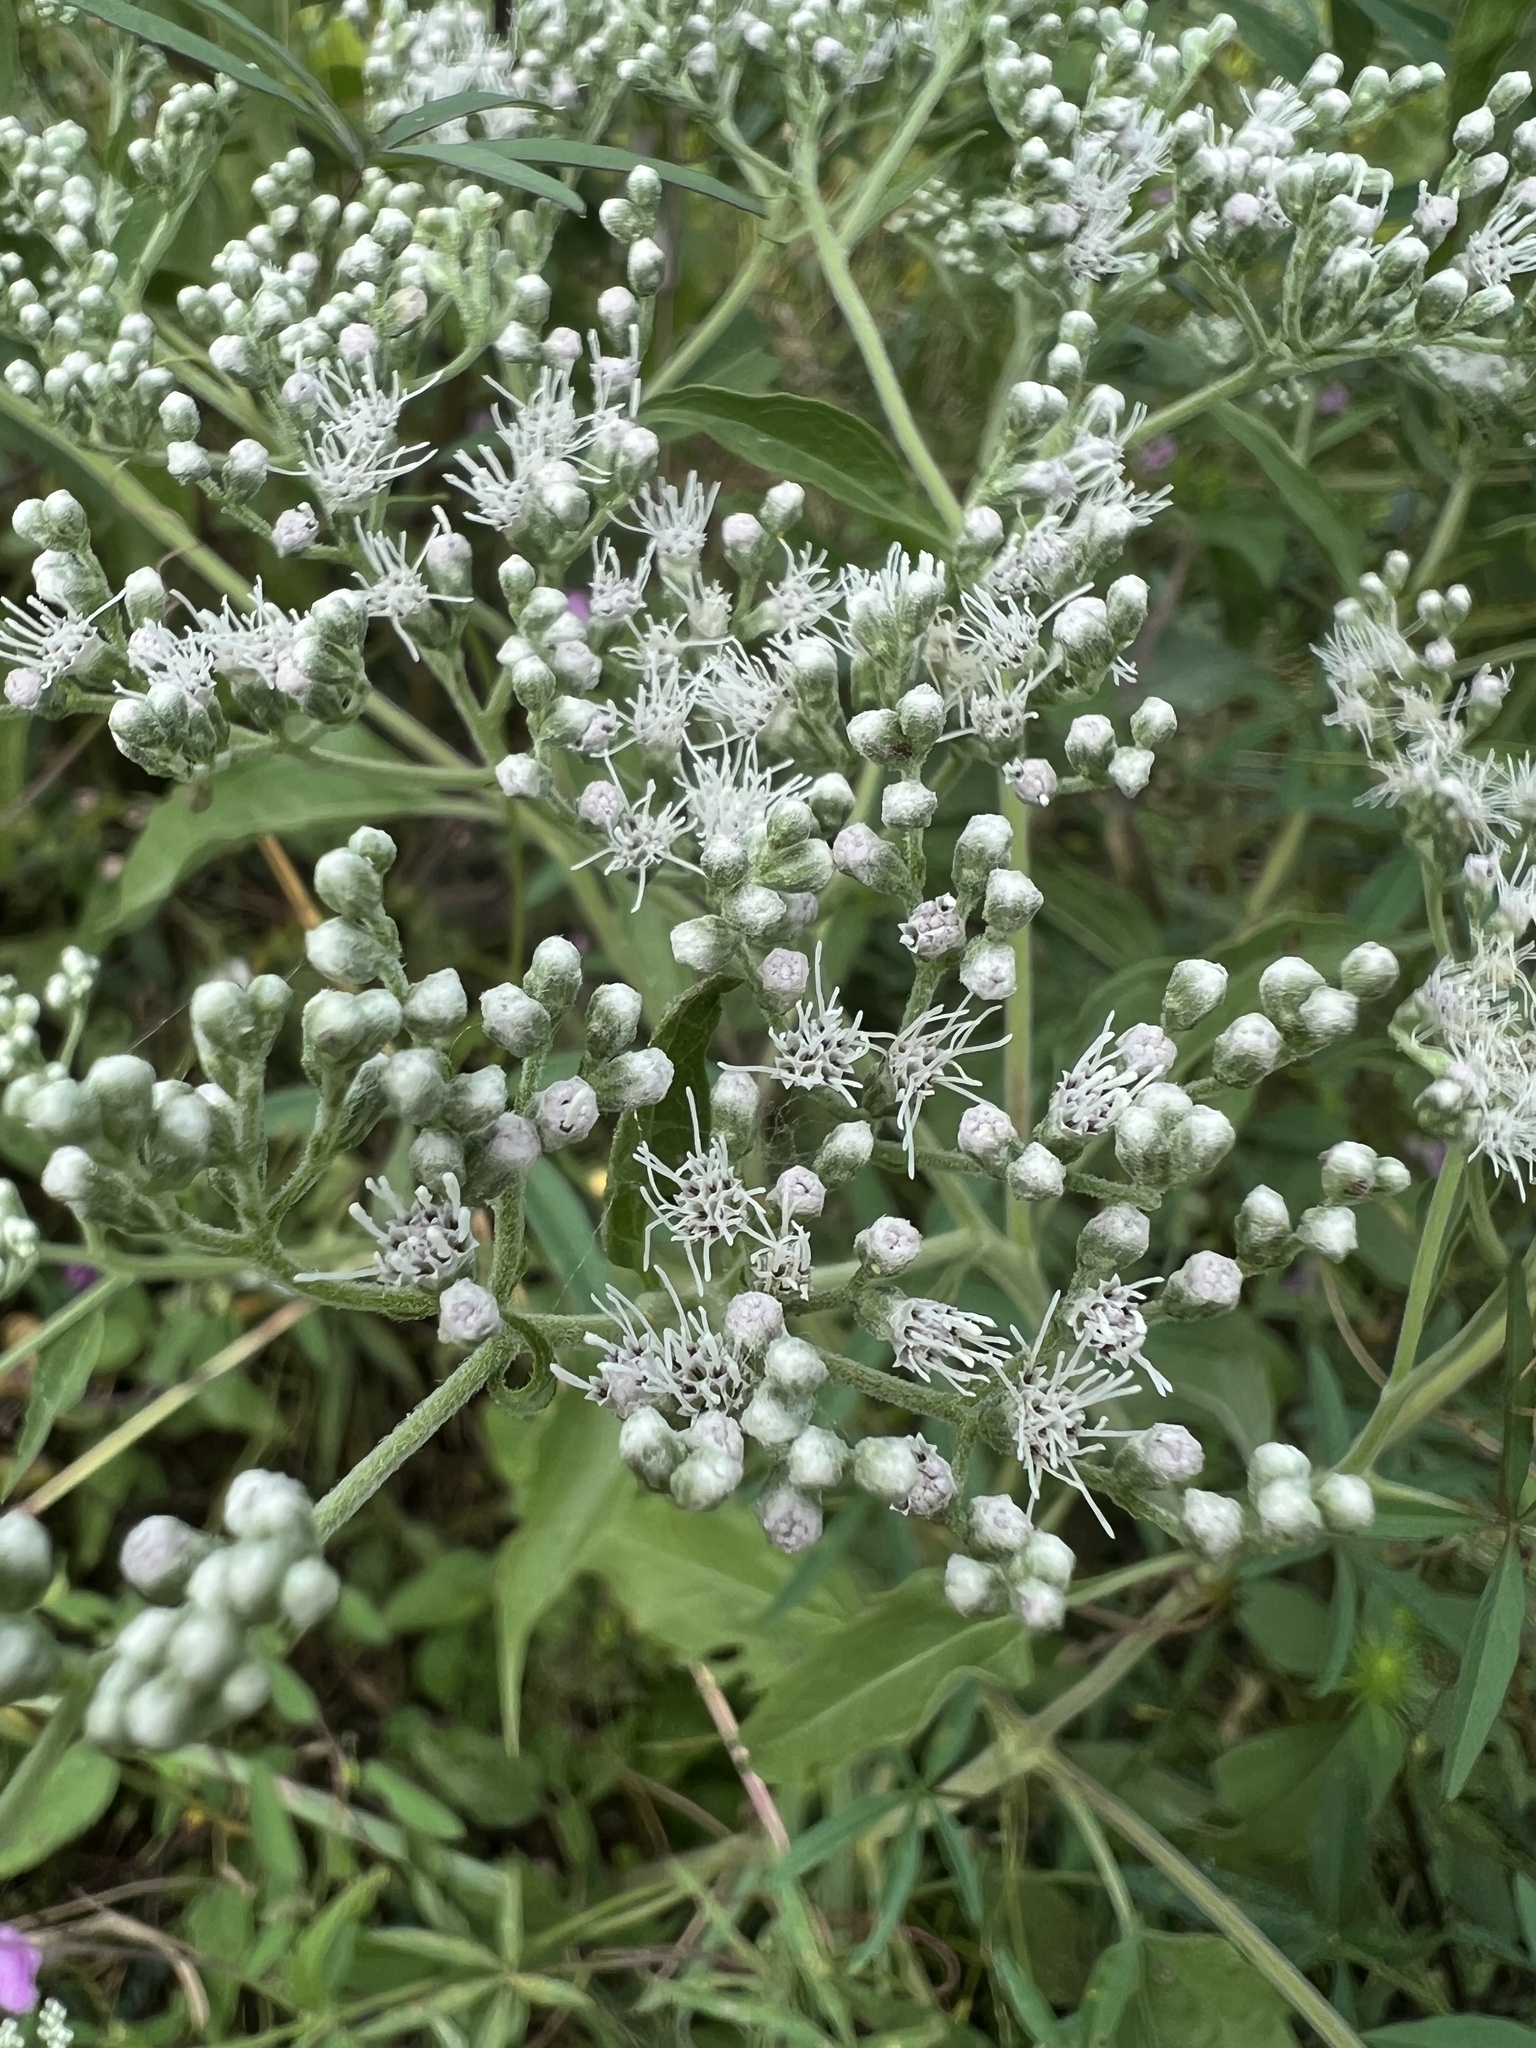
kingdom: Plantae
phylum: Tracheophyta
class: Magnoliopsida
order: Asterales
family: Asteraceae
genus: Eupatorium
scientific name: Eupatorium serotinum
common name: Late boneset
